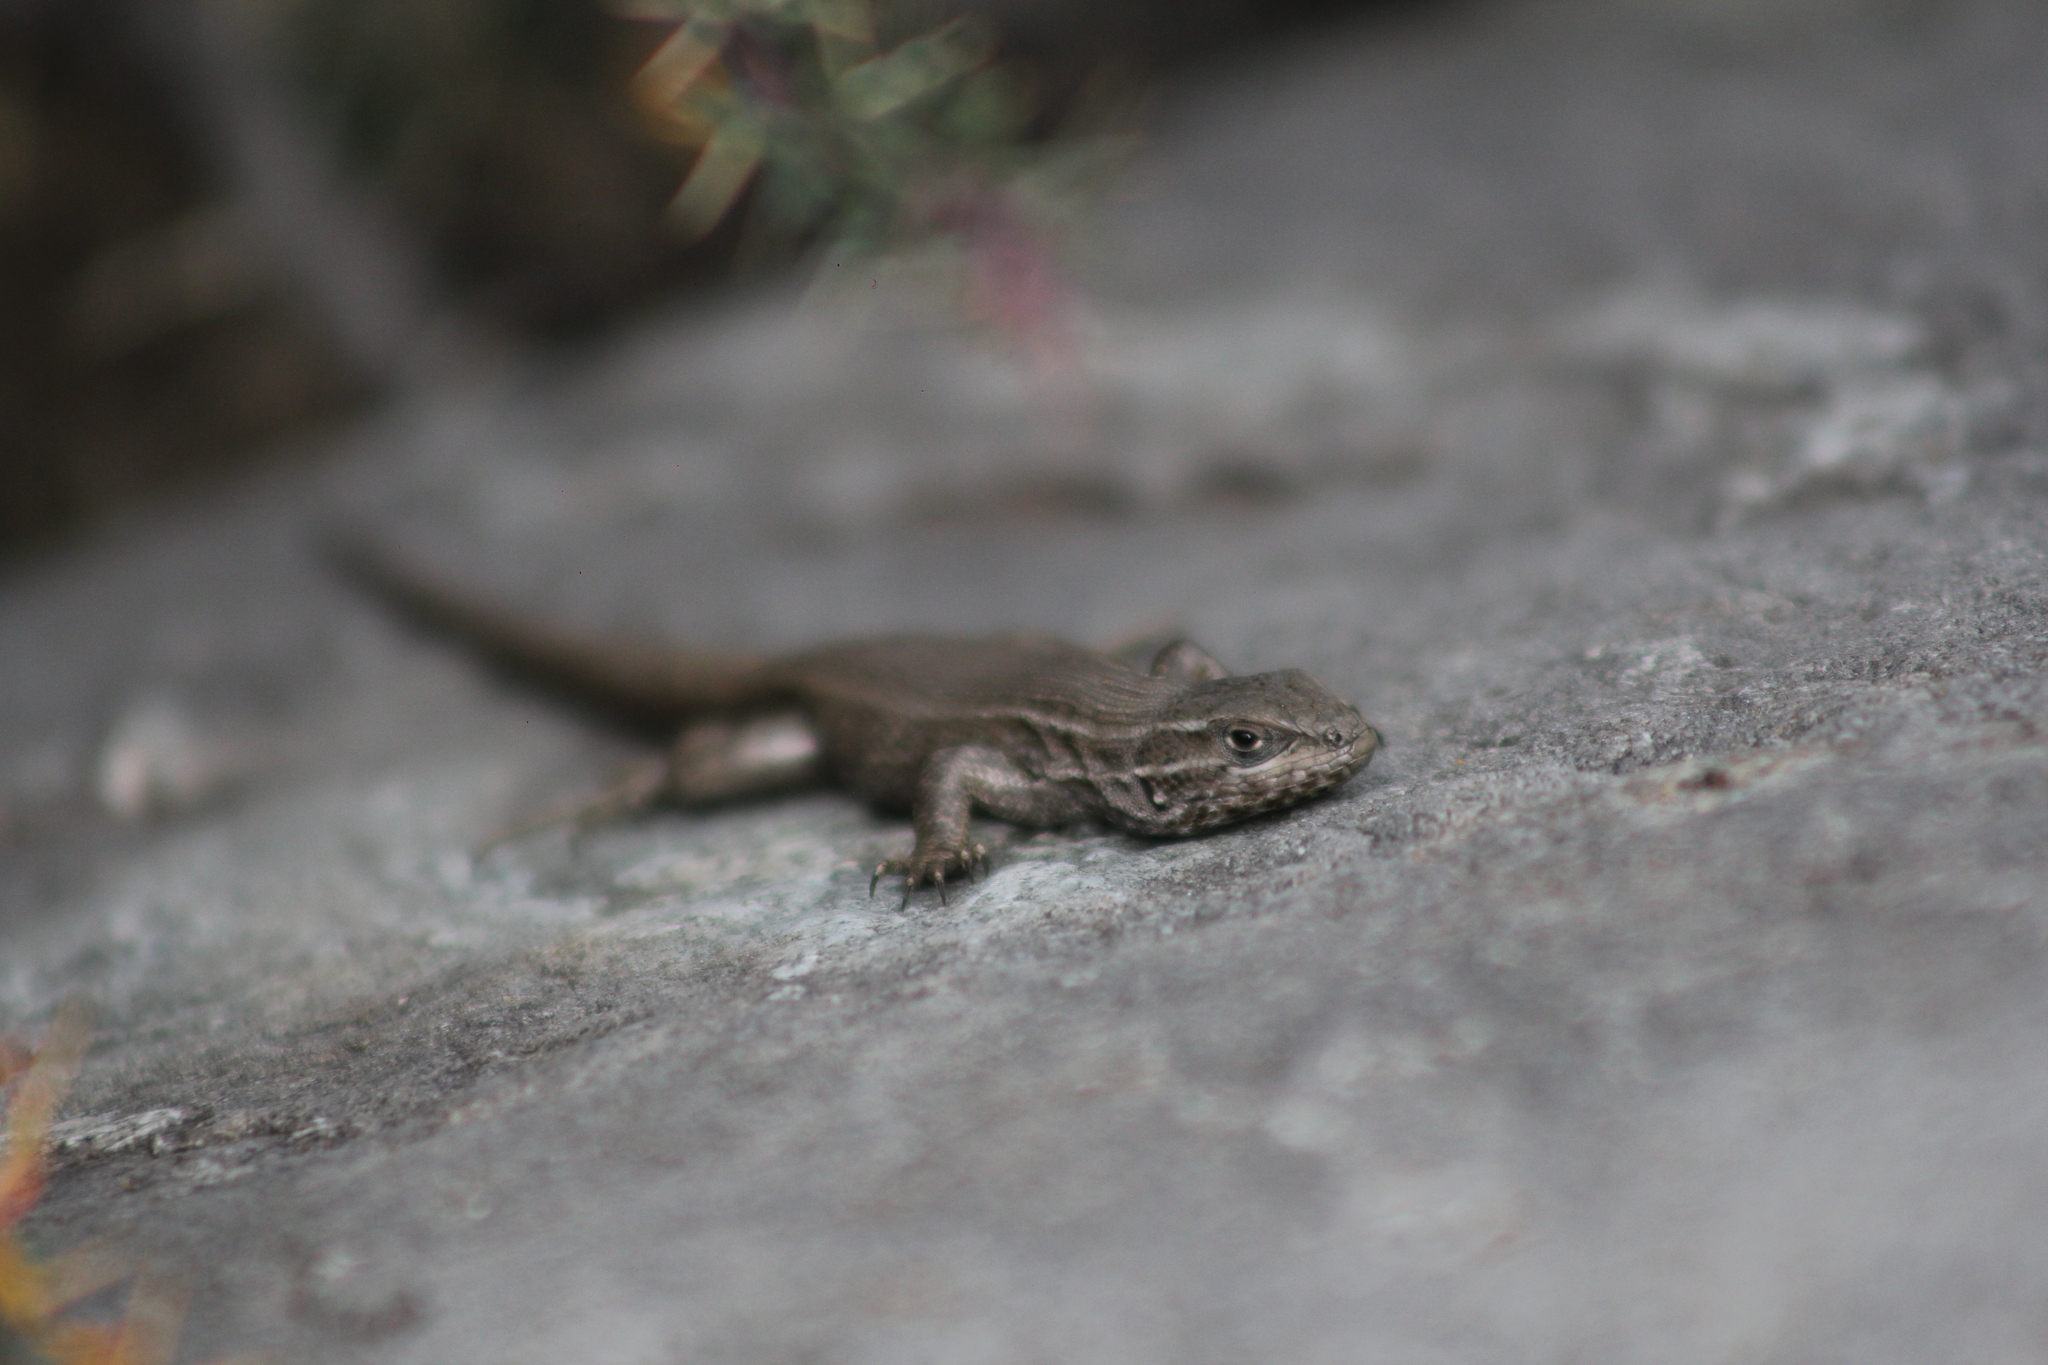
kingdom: Animalia
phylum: Chordata
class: Squamata
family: Liolaemidae
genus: Liolaemus
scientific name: Liolaemus parvus
